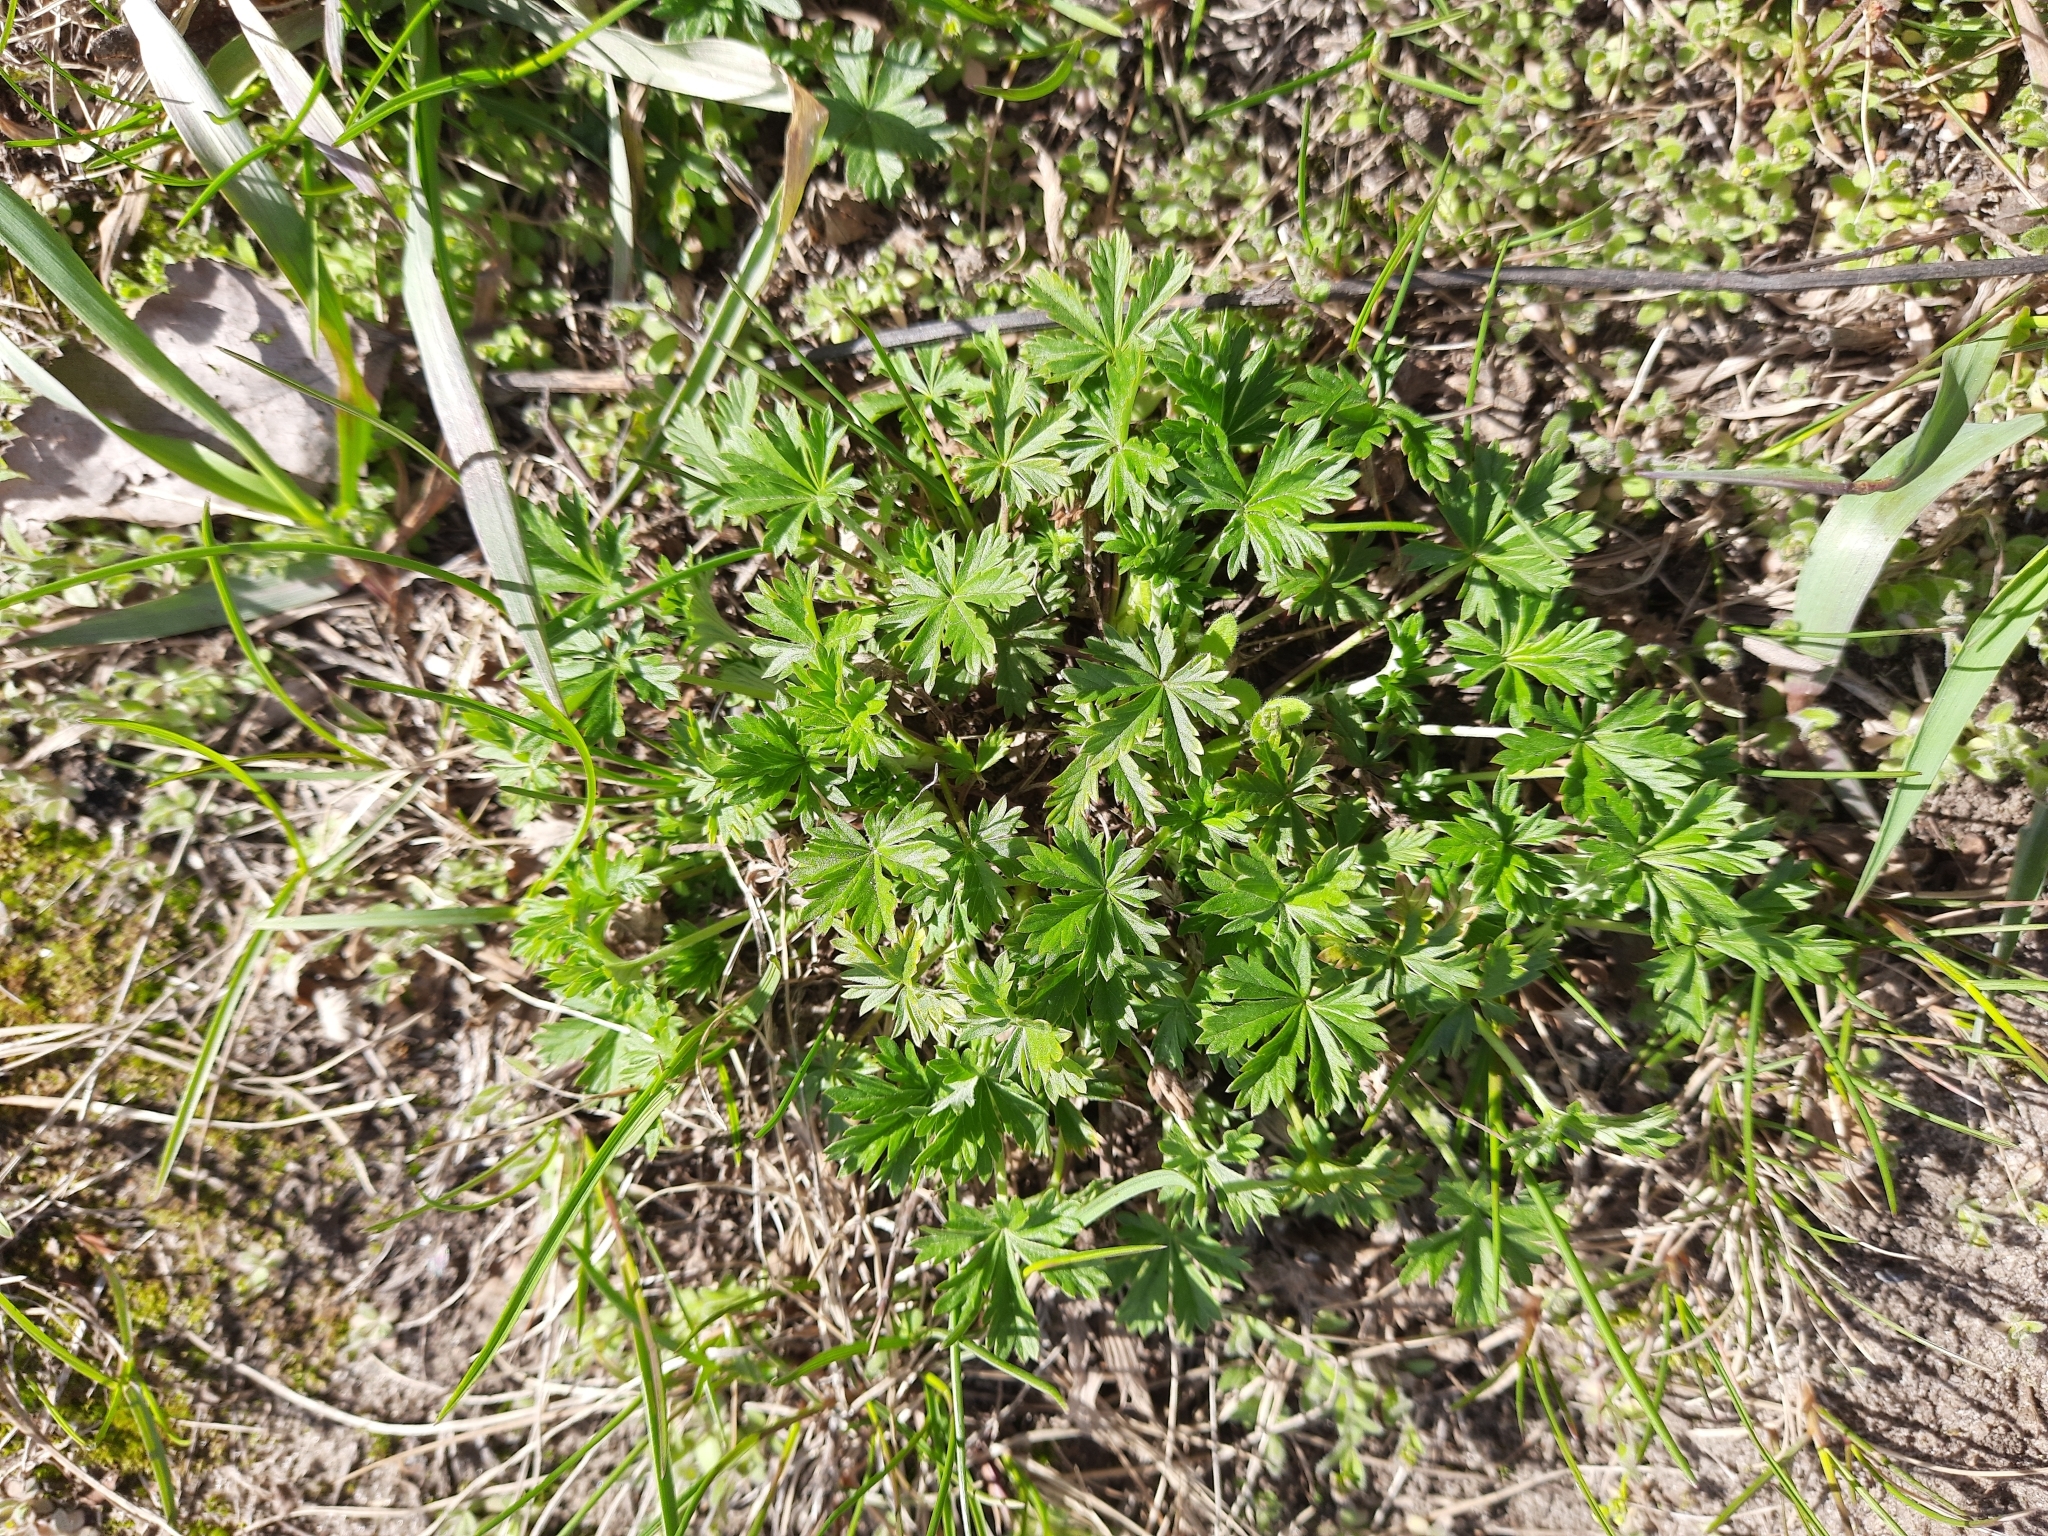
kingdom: Plantae
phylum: Tracheophyta
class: Magnoliopsida
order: Rosales
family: Rosaceae
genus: Potentilla
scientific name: Potentilla argentea
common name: Hoary cinquefoil
